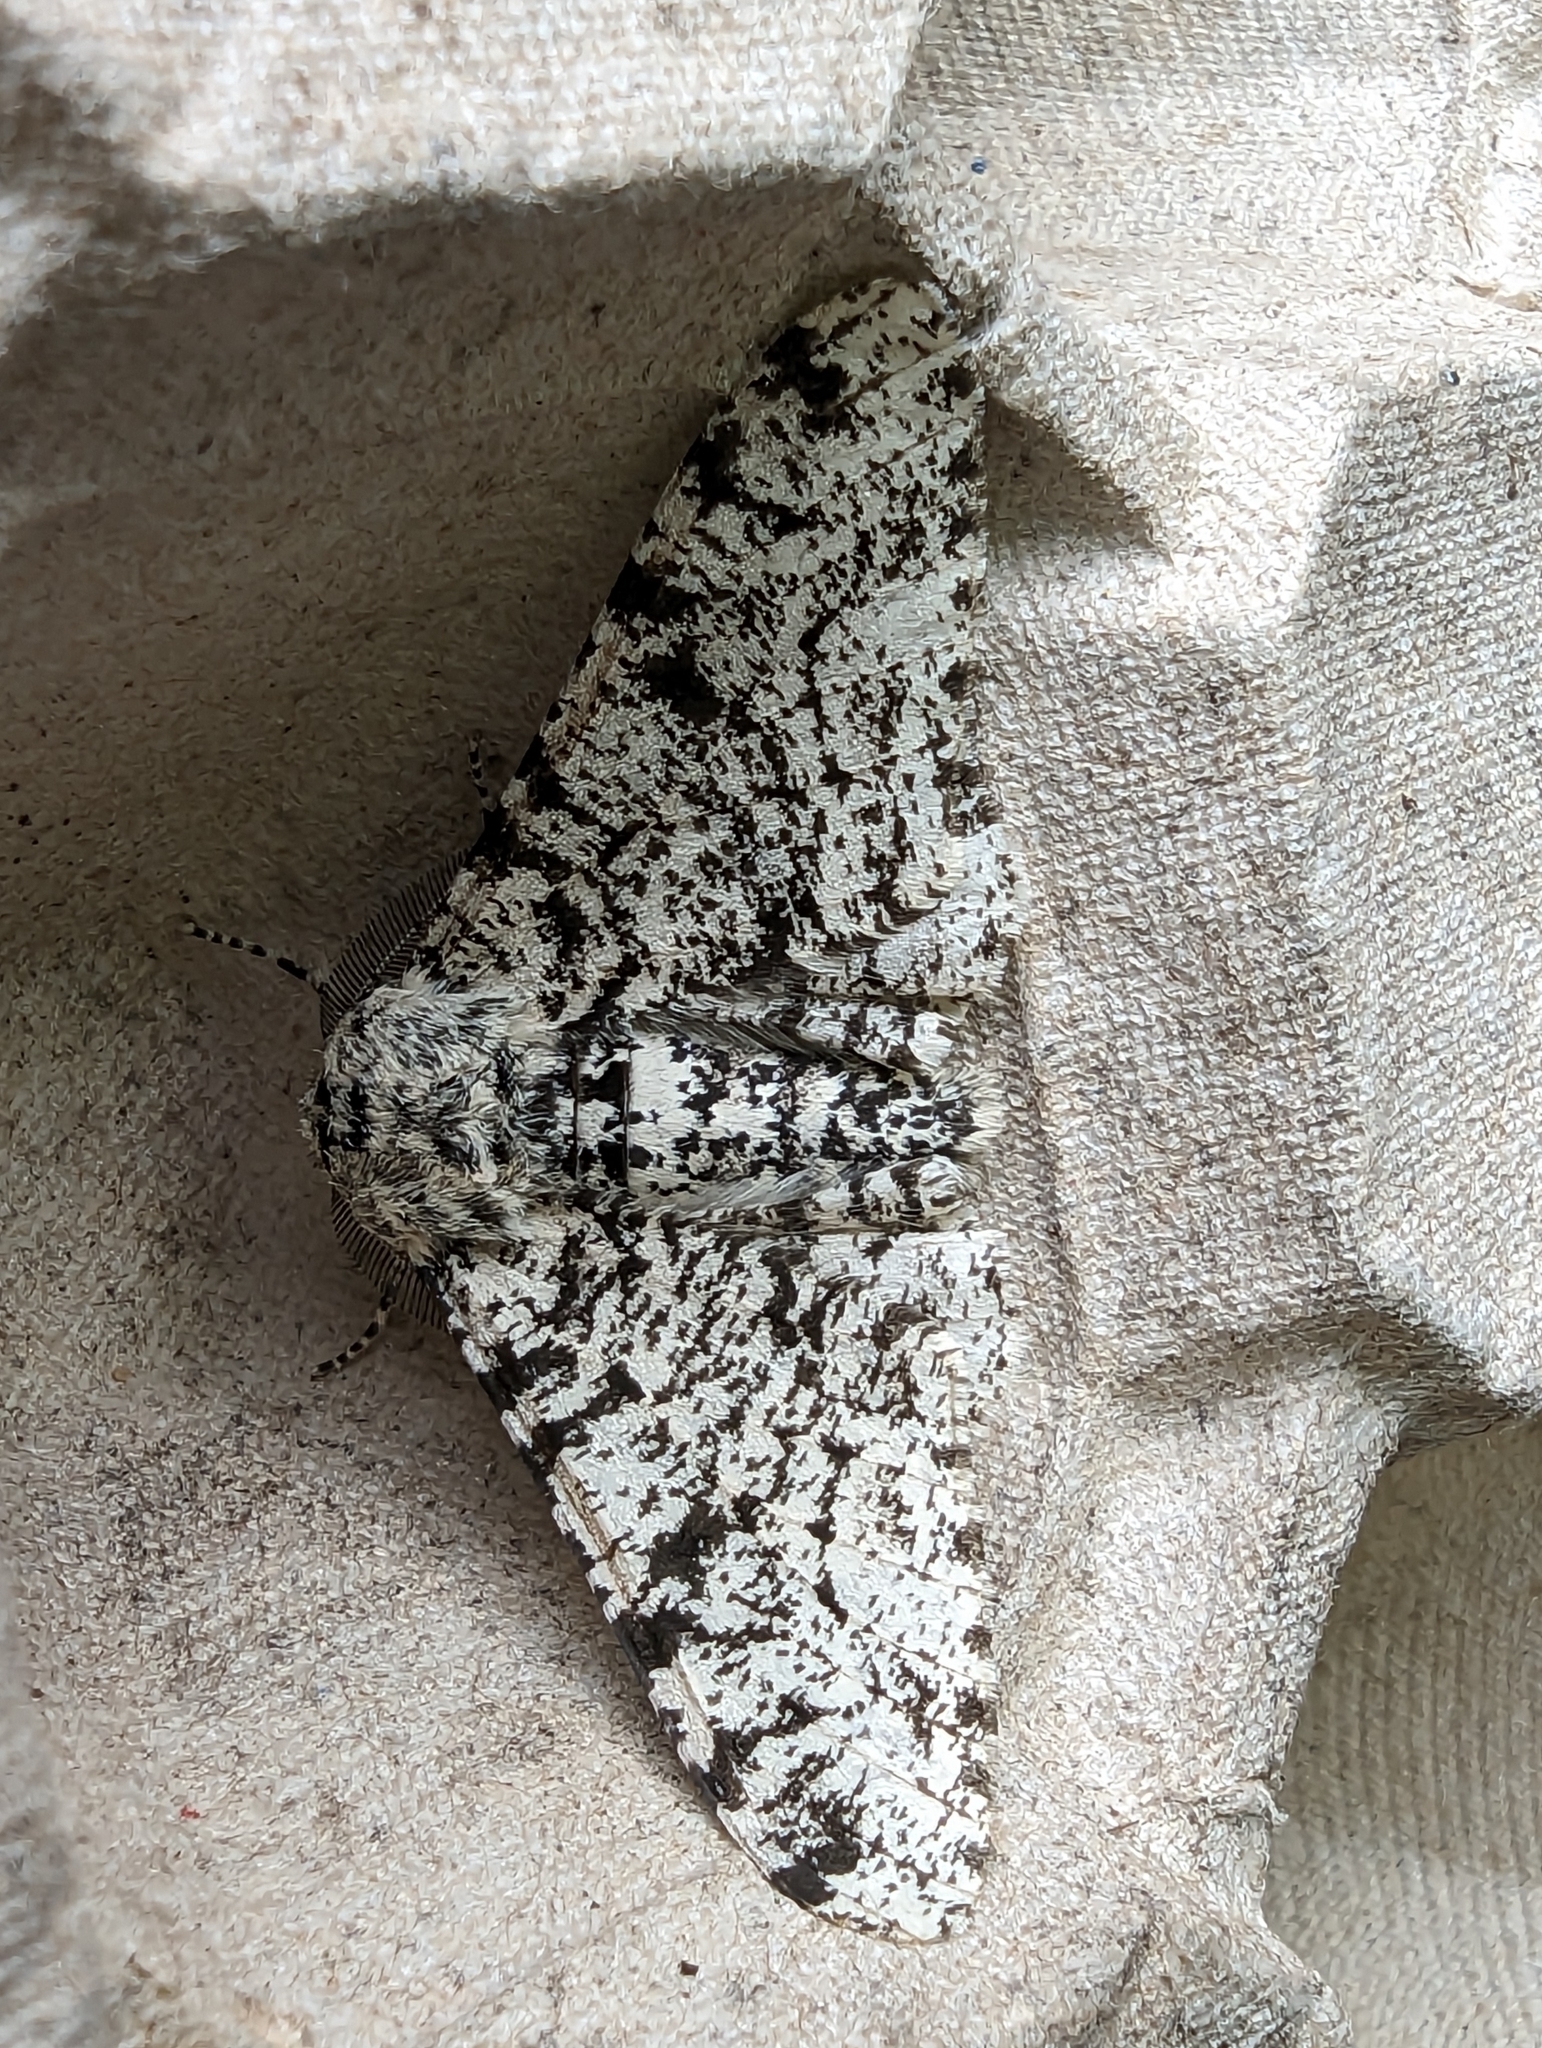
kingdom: Animalia
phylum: Arthropoda
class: Insecta
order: Lepidoptera
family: Geometridae
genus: Biston
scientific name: Biston betularia
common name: Peppered moth
